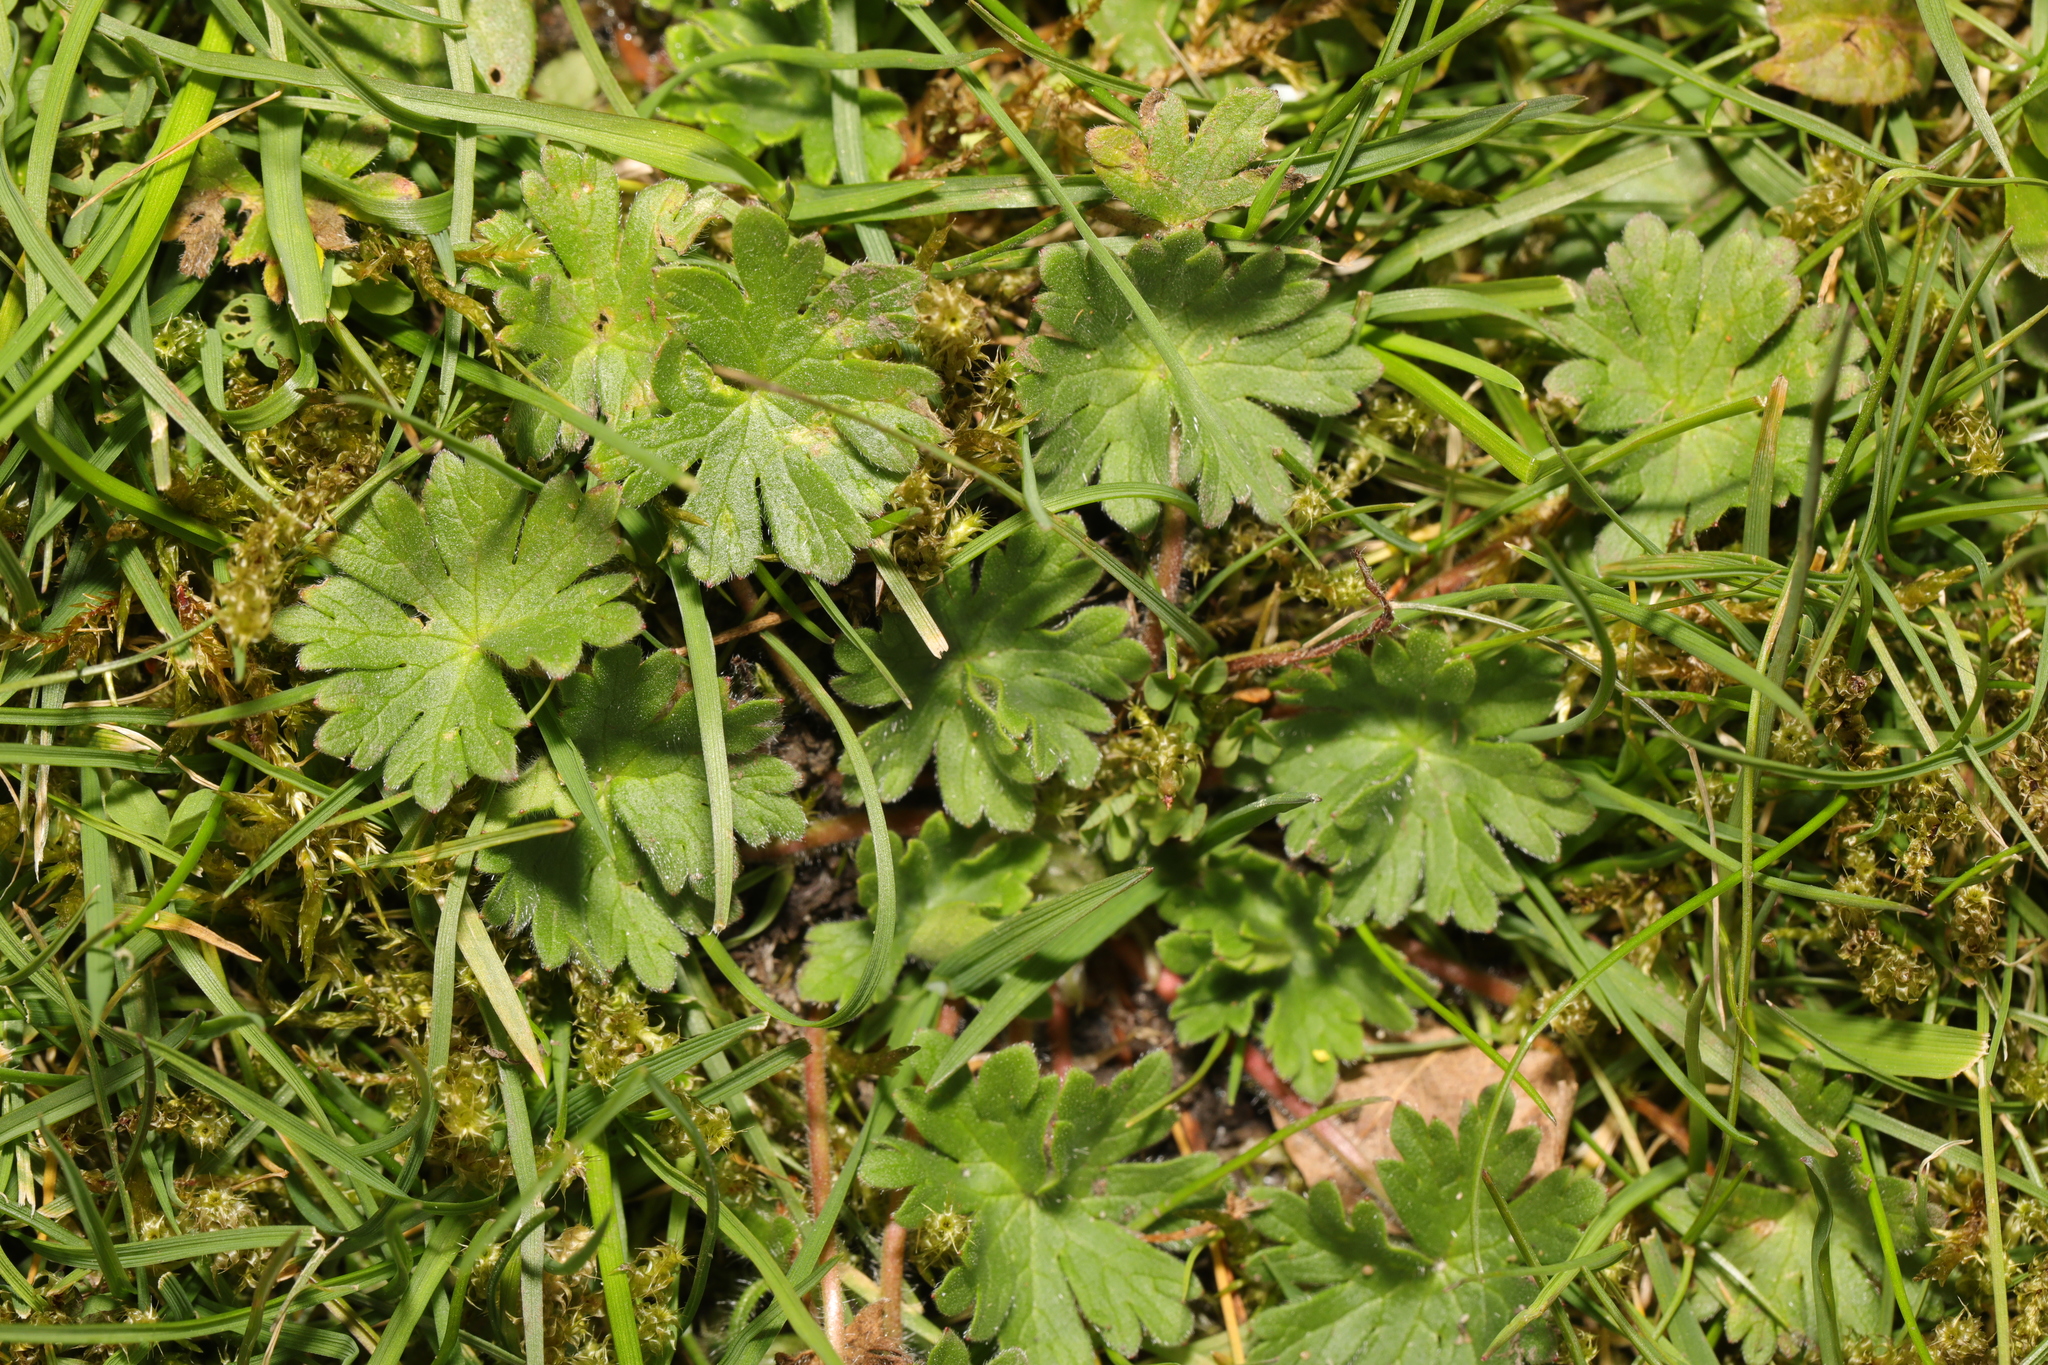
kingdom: Plantae
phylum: Tracheophyta
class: Magnoliopsida
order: Geraniales
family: Geraniaceae
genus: Geranium
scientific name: Geranium molle
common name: Dove's-foot crane's-bill
